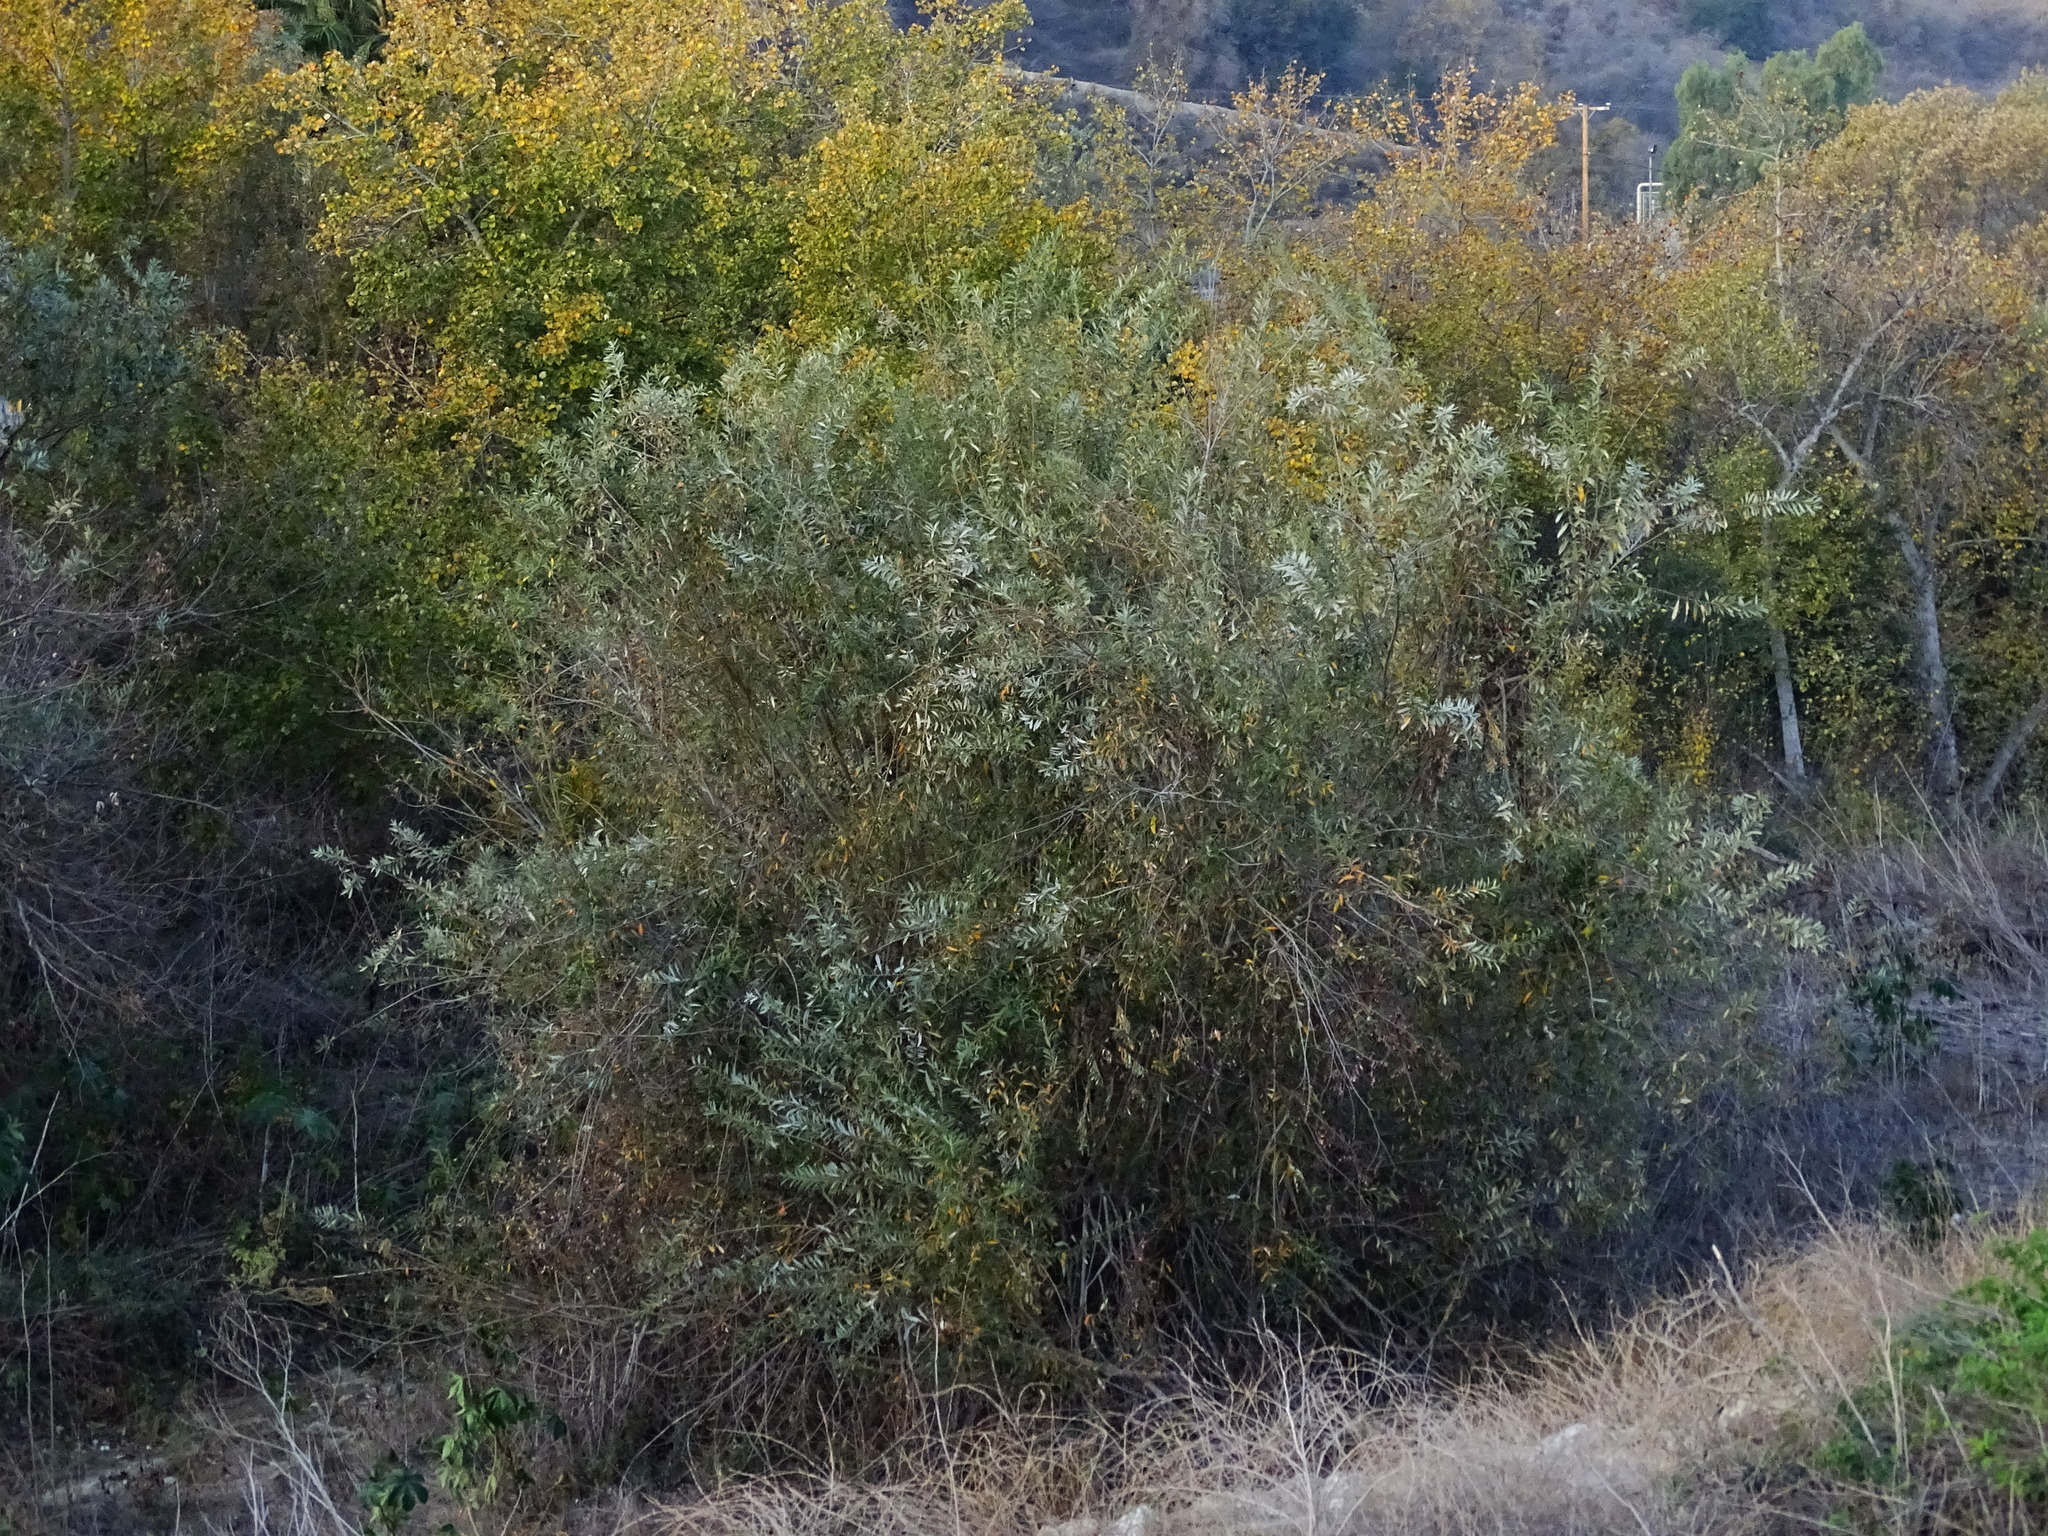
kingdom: Plantae
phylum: Tracheophyta
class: Magnoliopsida
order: Malpighiales
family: Salicaceae
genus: Salix
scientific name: Salix lasiolepis
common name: Arroyo willow
